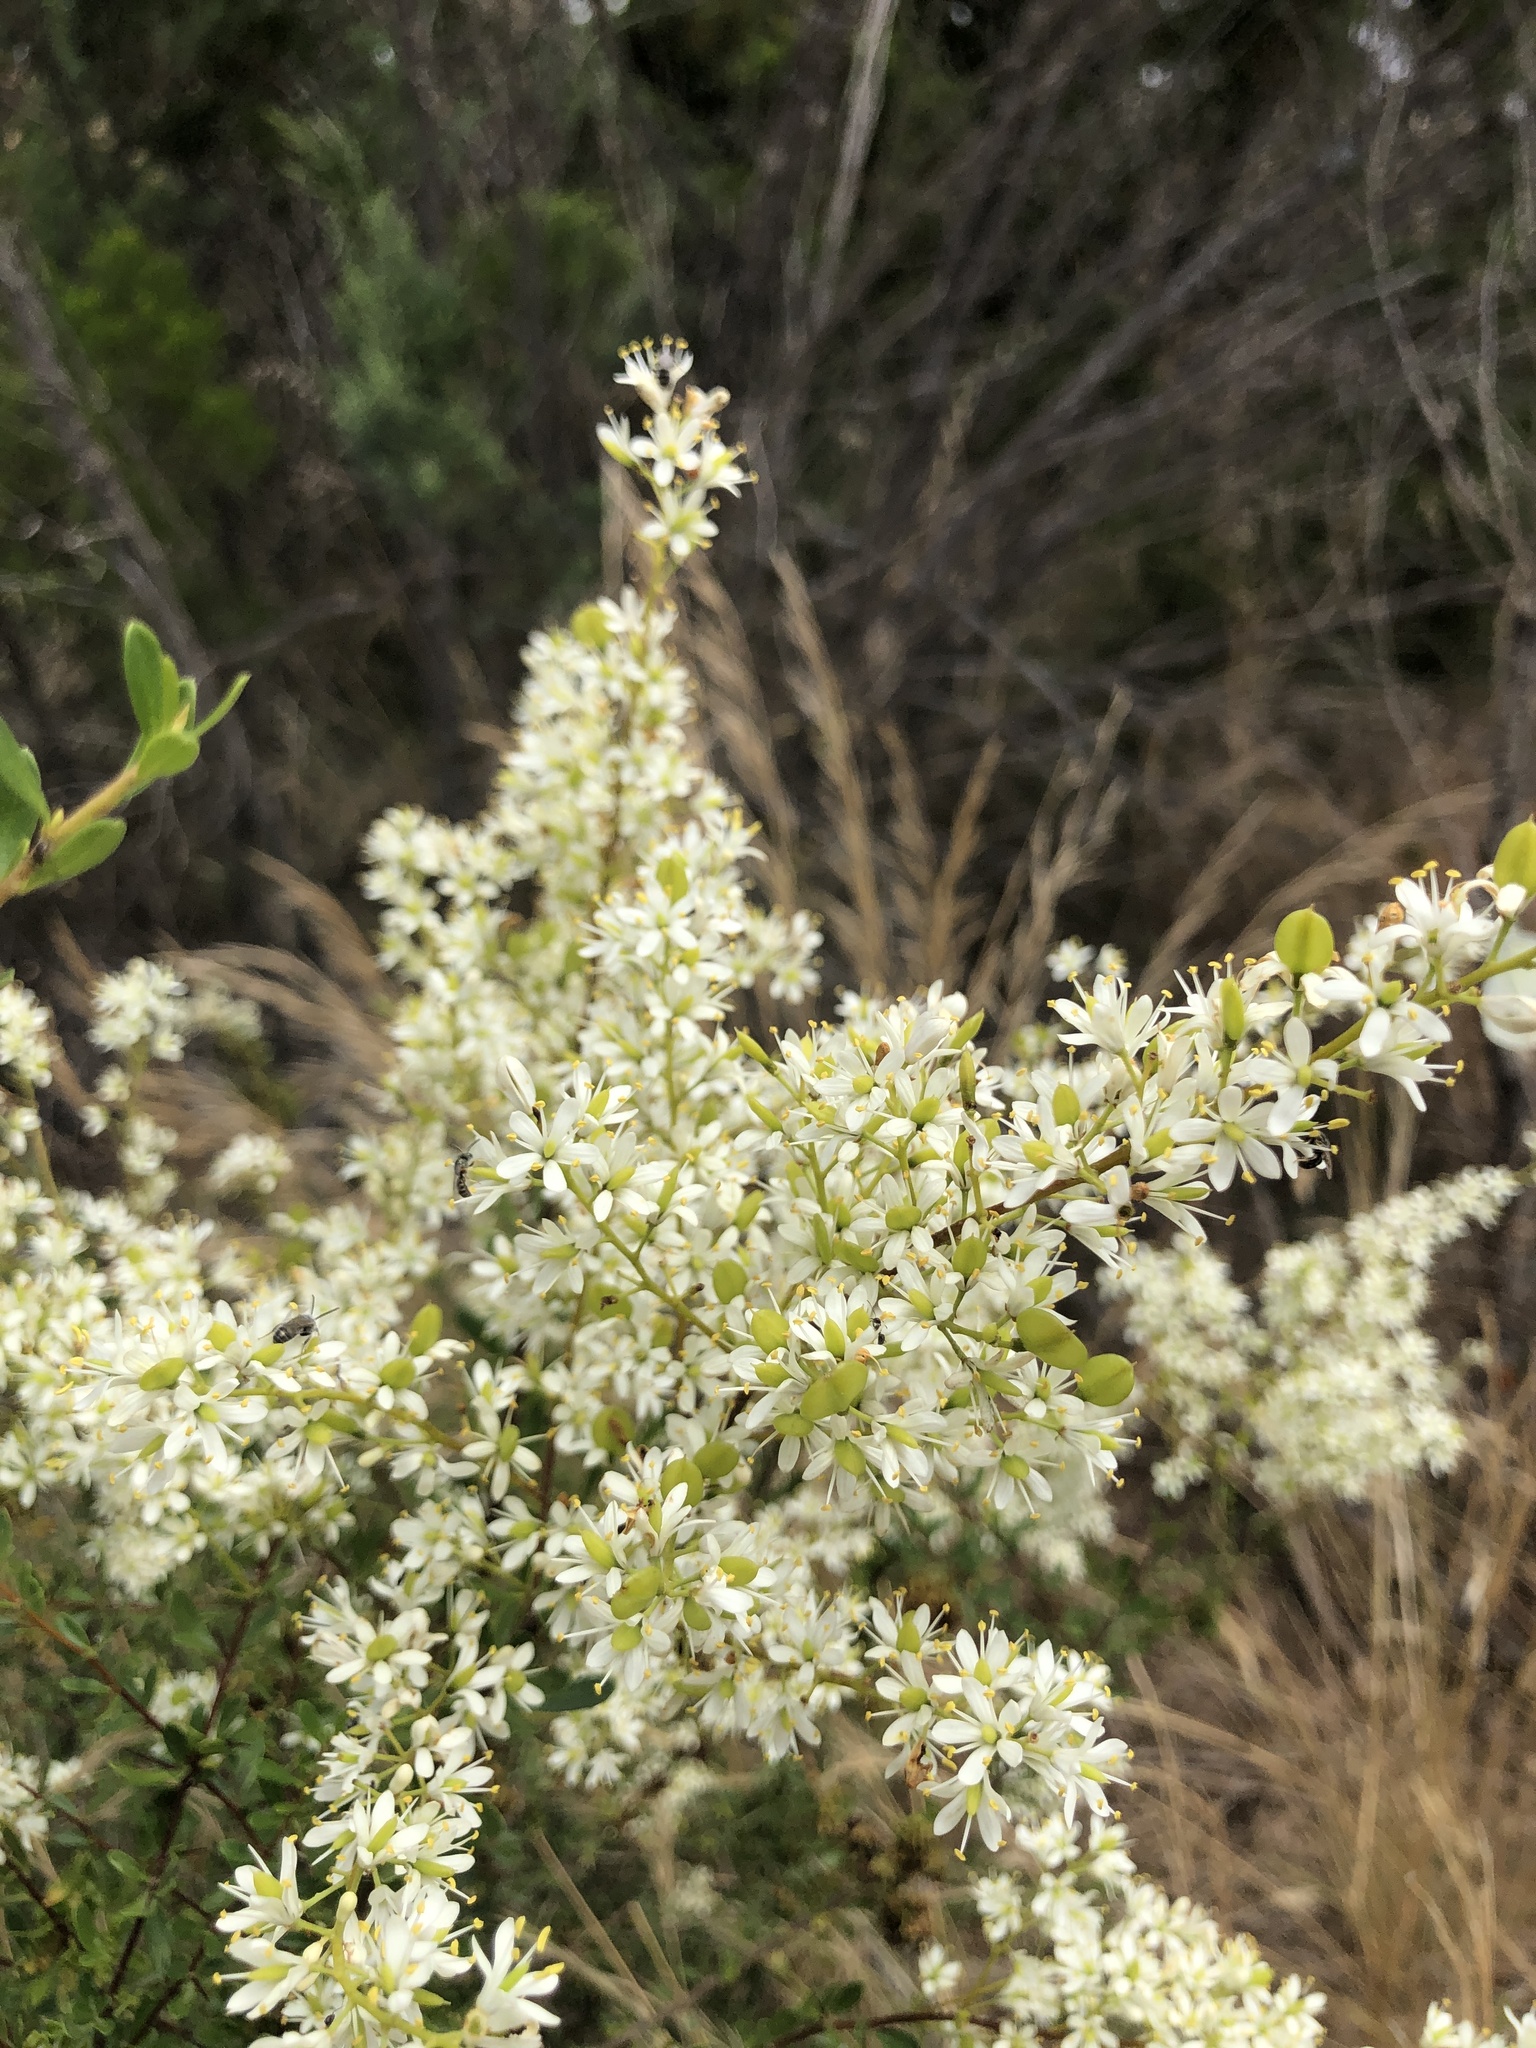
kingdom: Plantae
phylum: Tracheophyta
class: Magnoliopsida
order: Apiales
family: Pittosporaceae
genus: Bursaria
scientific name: Bursaria spinosa
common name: Australian blackthorn
